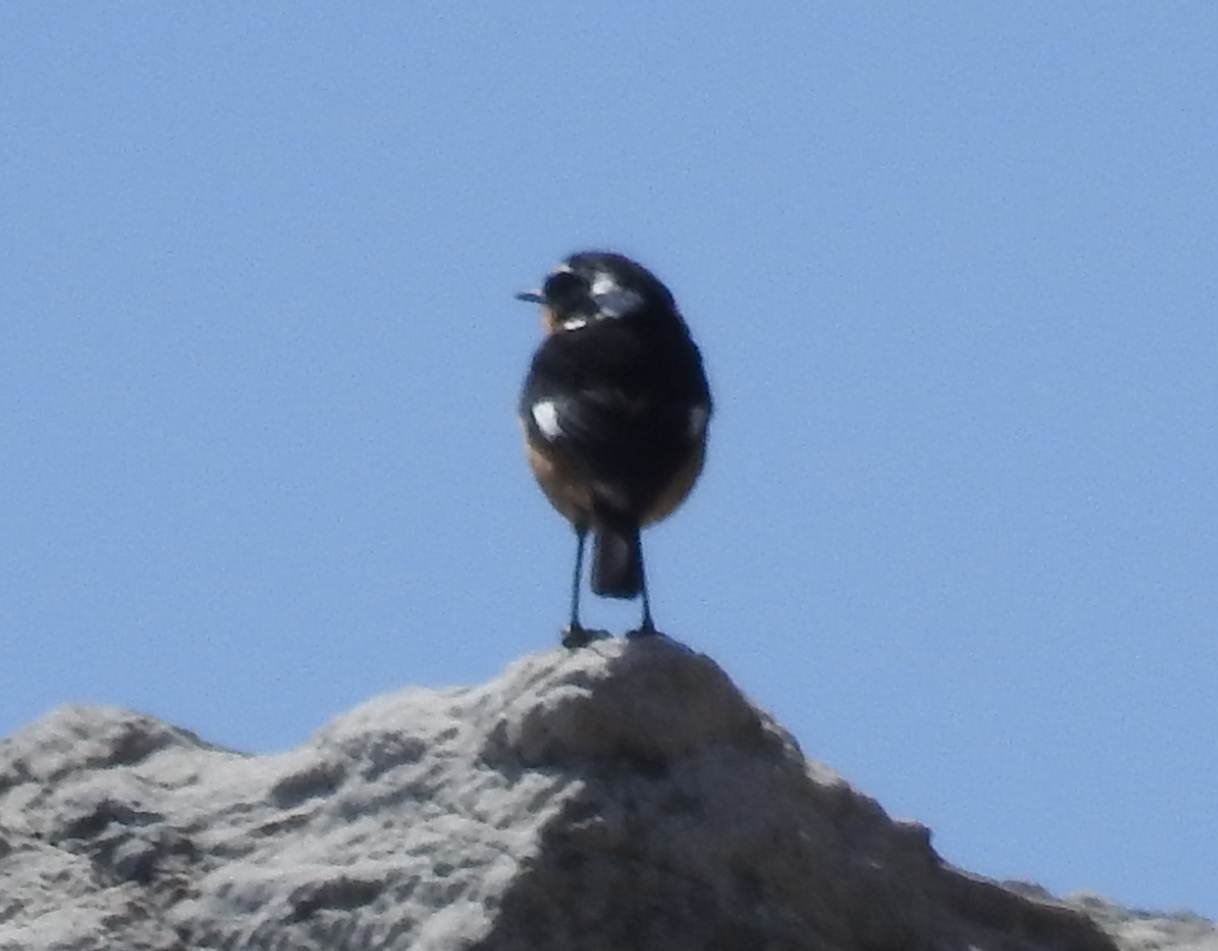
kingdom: Animalia
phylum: Chordata
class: Aves
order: Passeriformes
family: Muscicapidae
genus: Phoenicurus
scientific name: Phoenicurus moussieri
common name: Moussier's redstart
